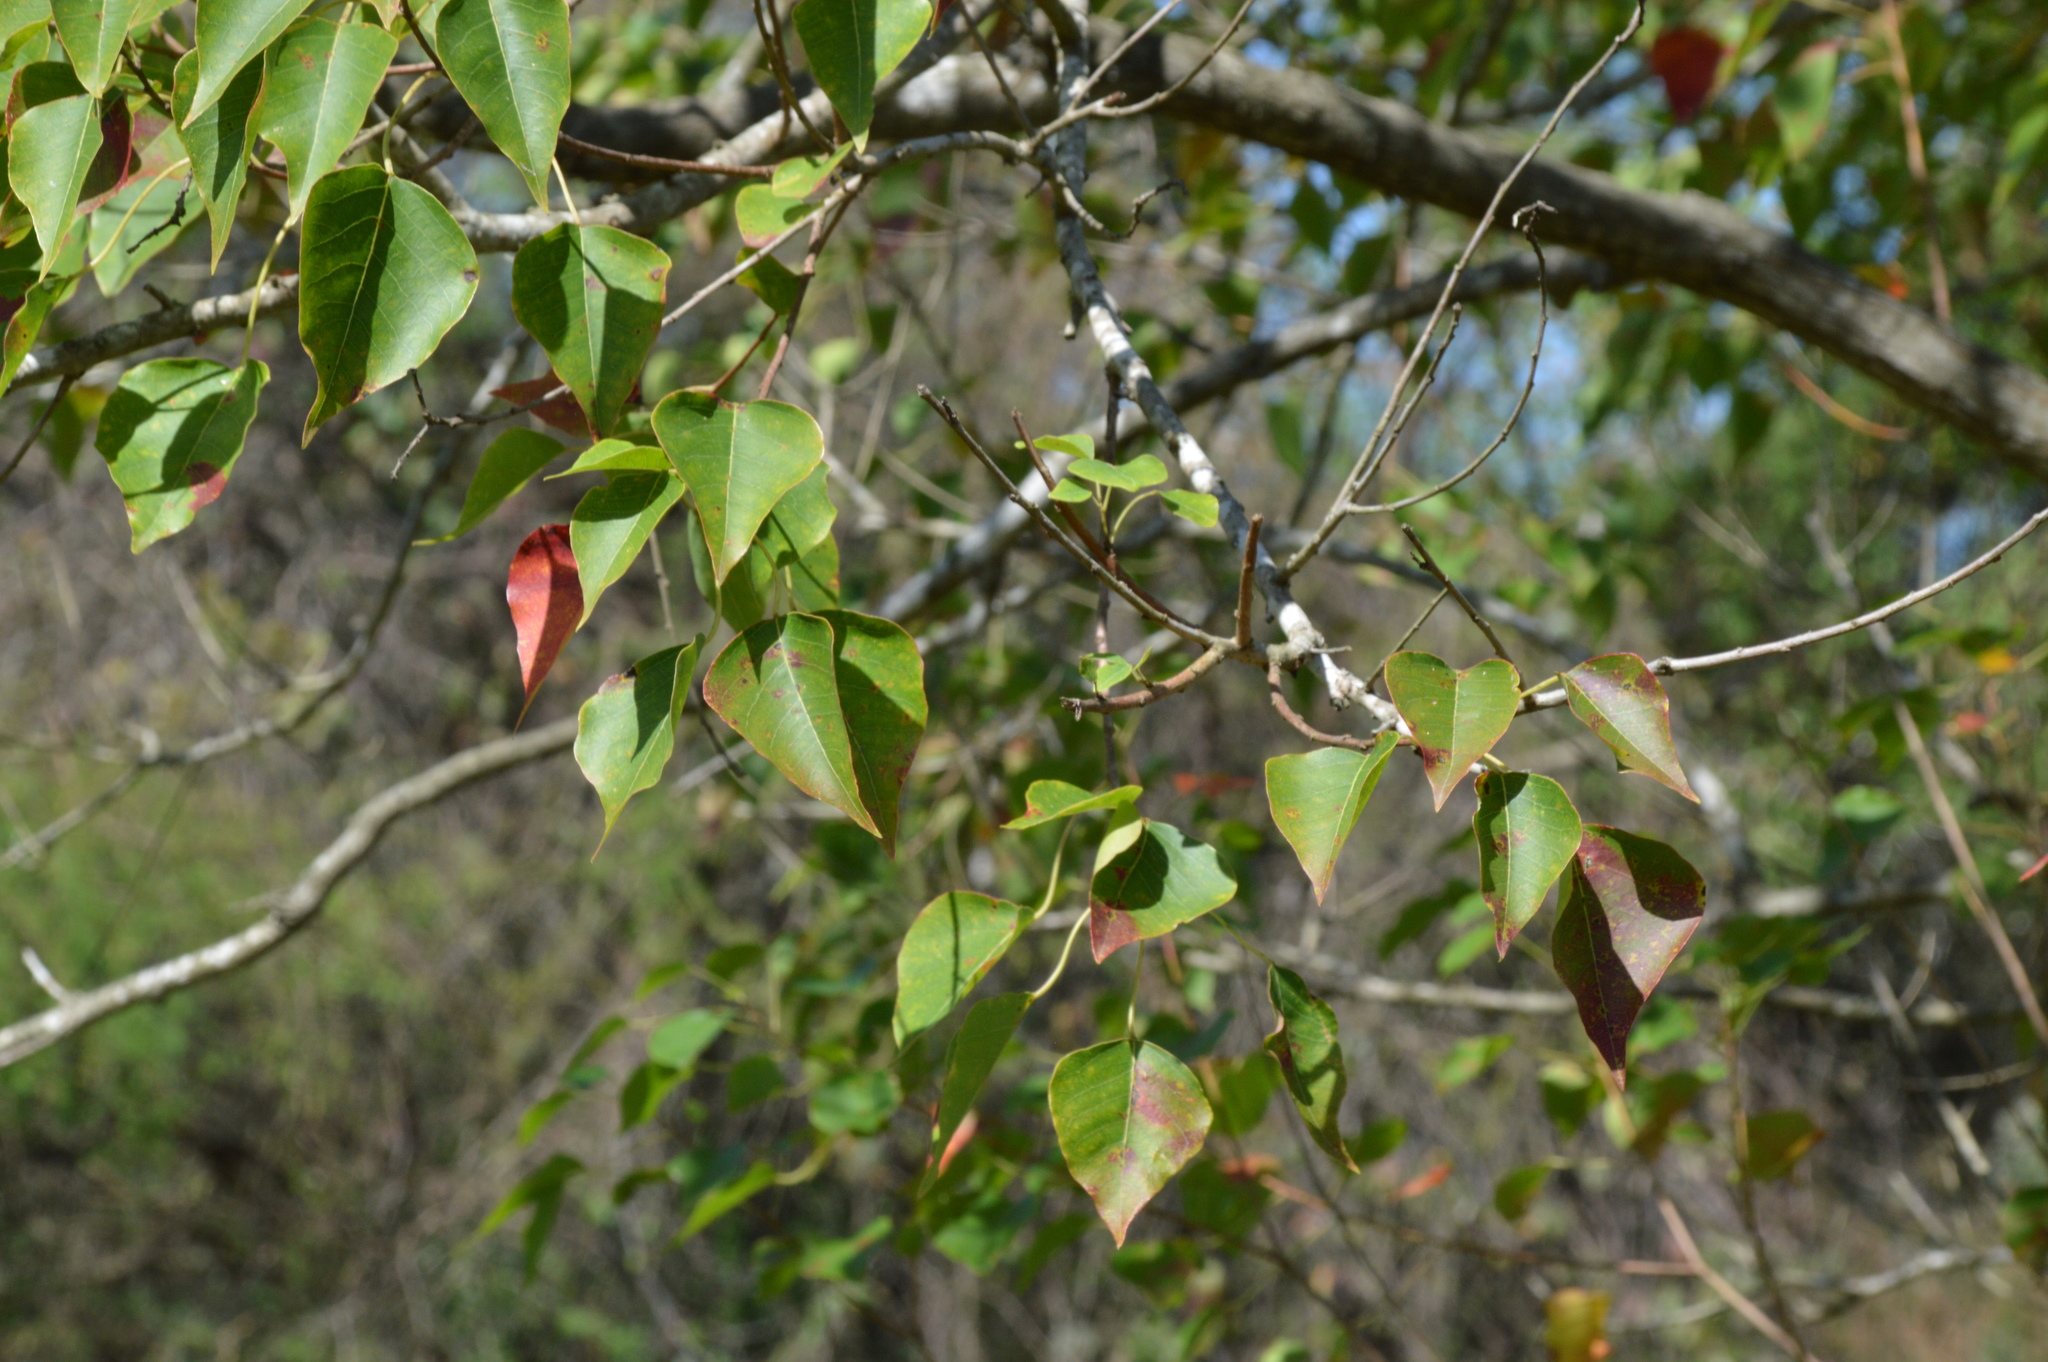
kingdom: Plantae
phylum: Tracheophyta
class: Magnoliopsida
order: Malpighiales
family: Euphorbiaceae
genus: Triadica
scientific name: Triadica sebifera
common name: Chinese tallow
